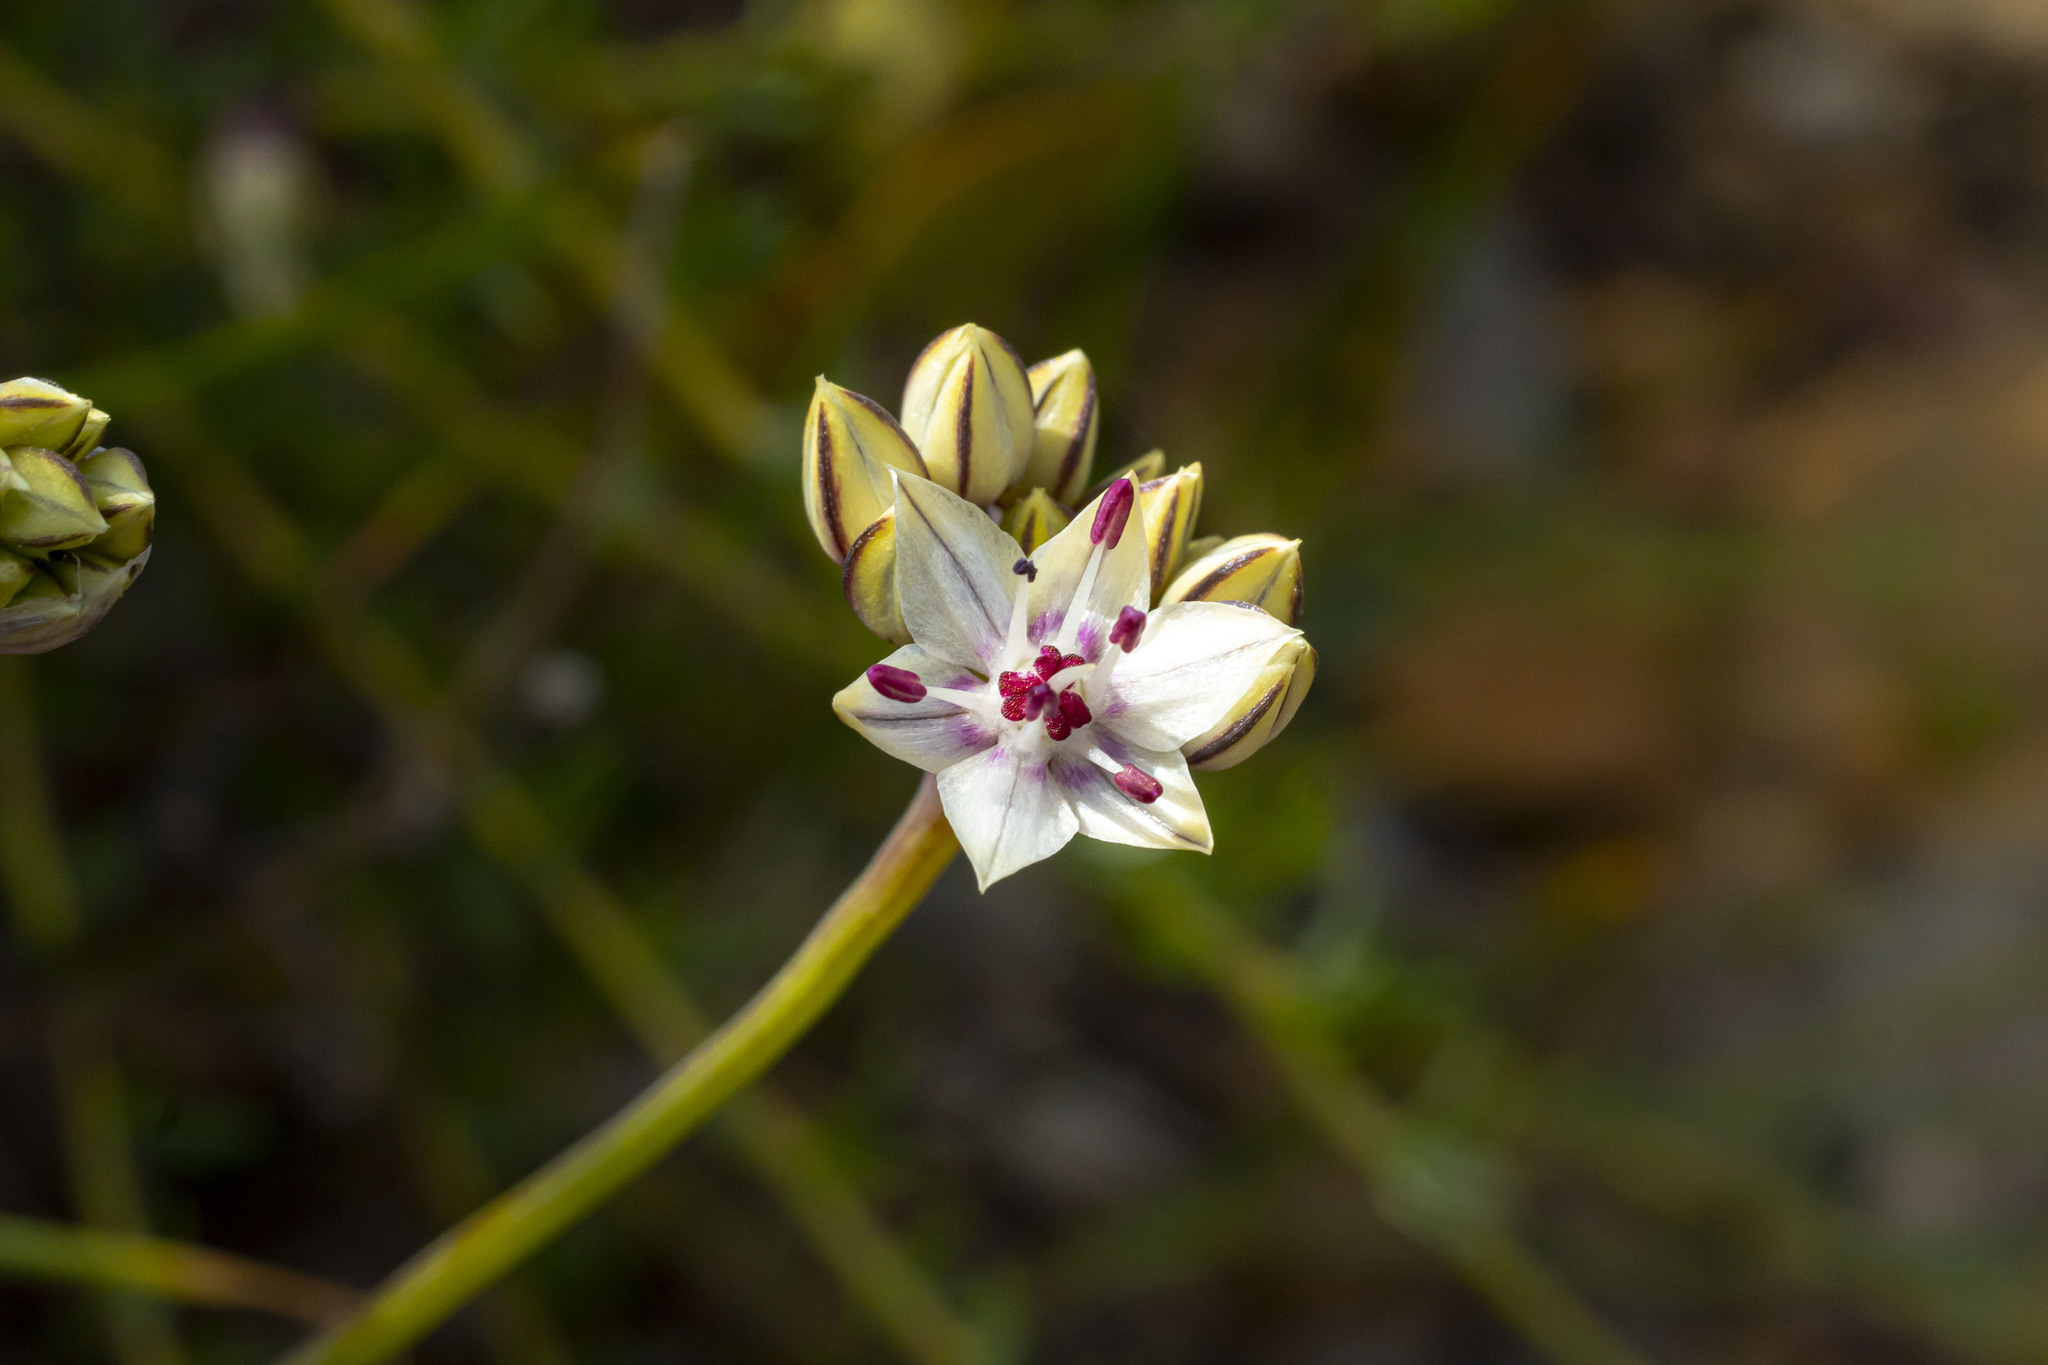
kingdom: Plantae
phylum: Tracheophyta
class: Liliopsida
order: Asparagales
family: Amaryllidaceae
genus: Allium
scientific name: Allium haematochiton
